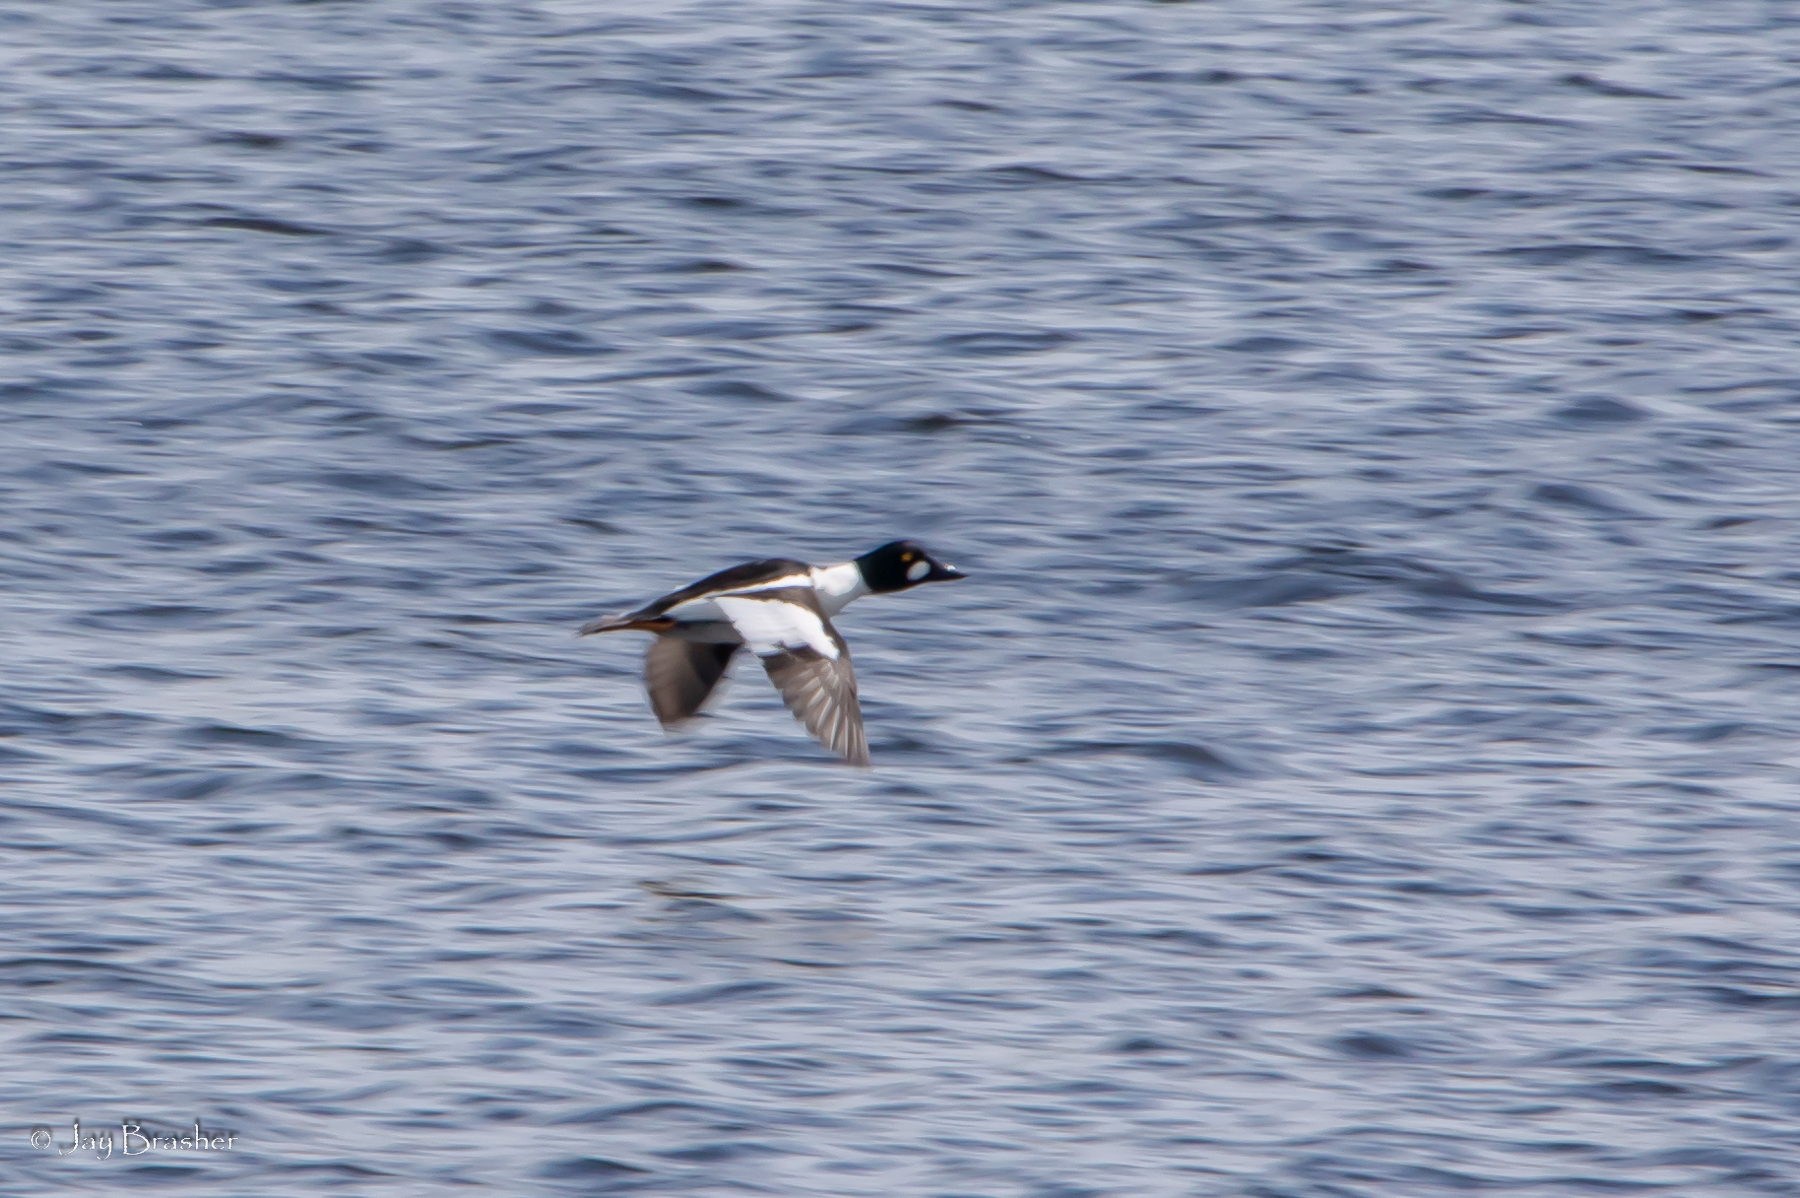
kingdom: Animalia
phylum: Chordata
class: Aves
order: Anseriformes
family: Anatidae
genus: Bucephala
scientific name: Bucephala clangula
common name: Common goldeneye
